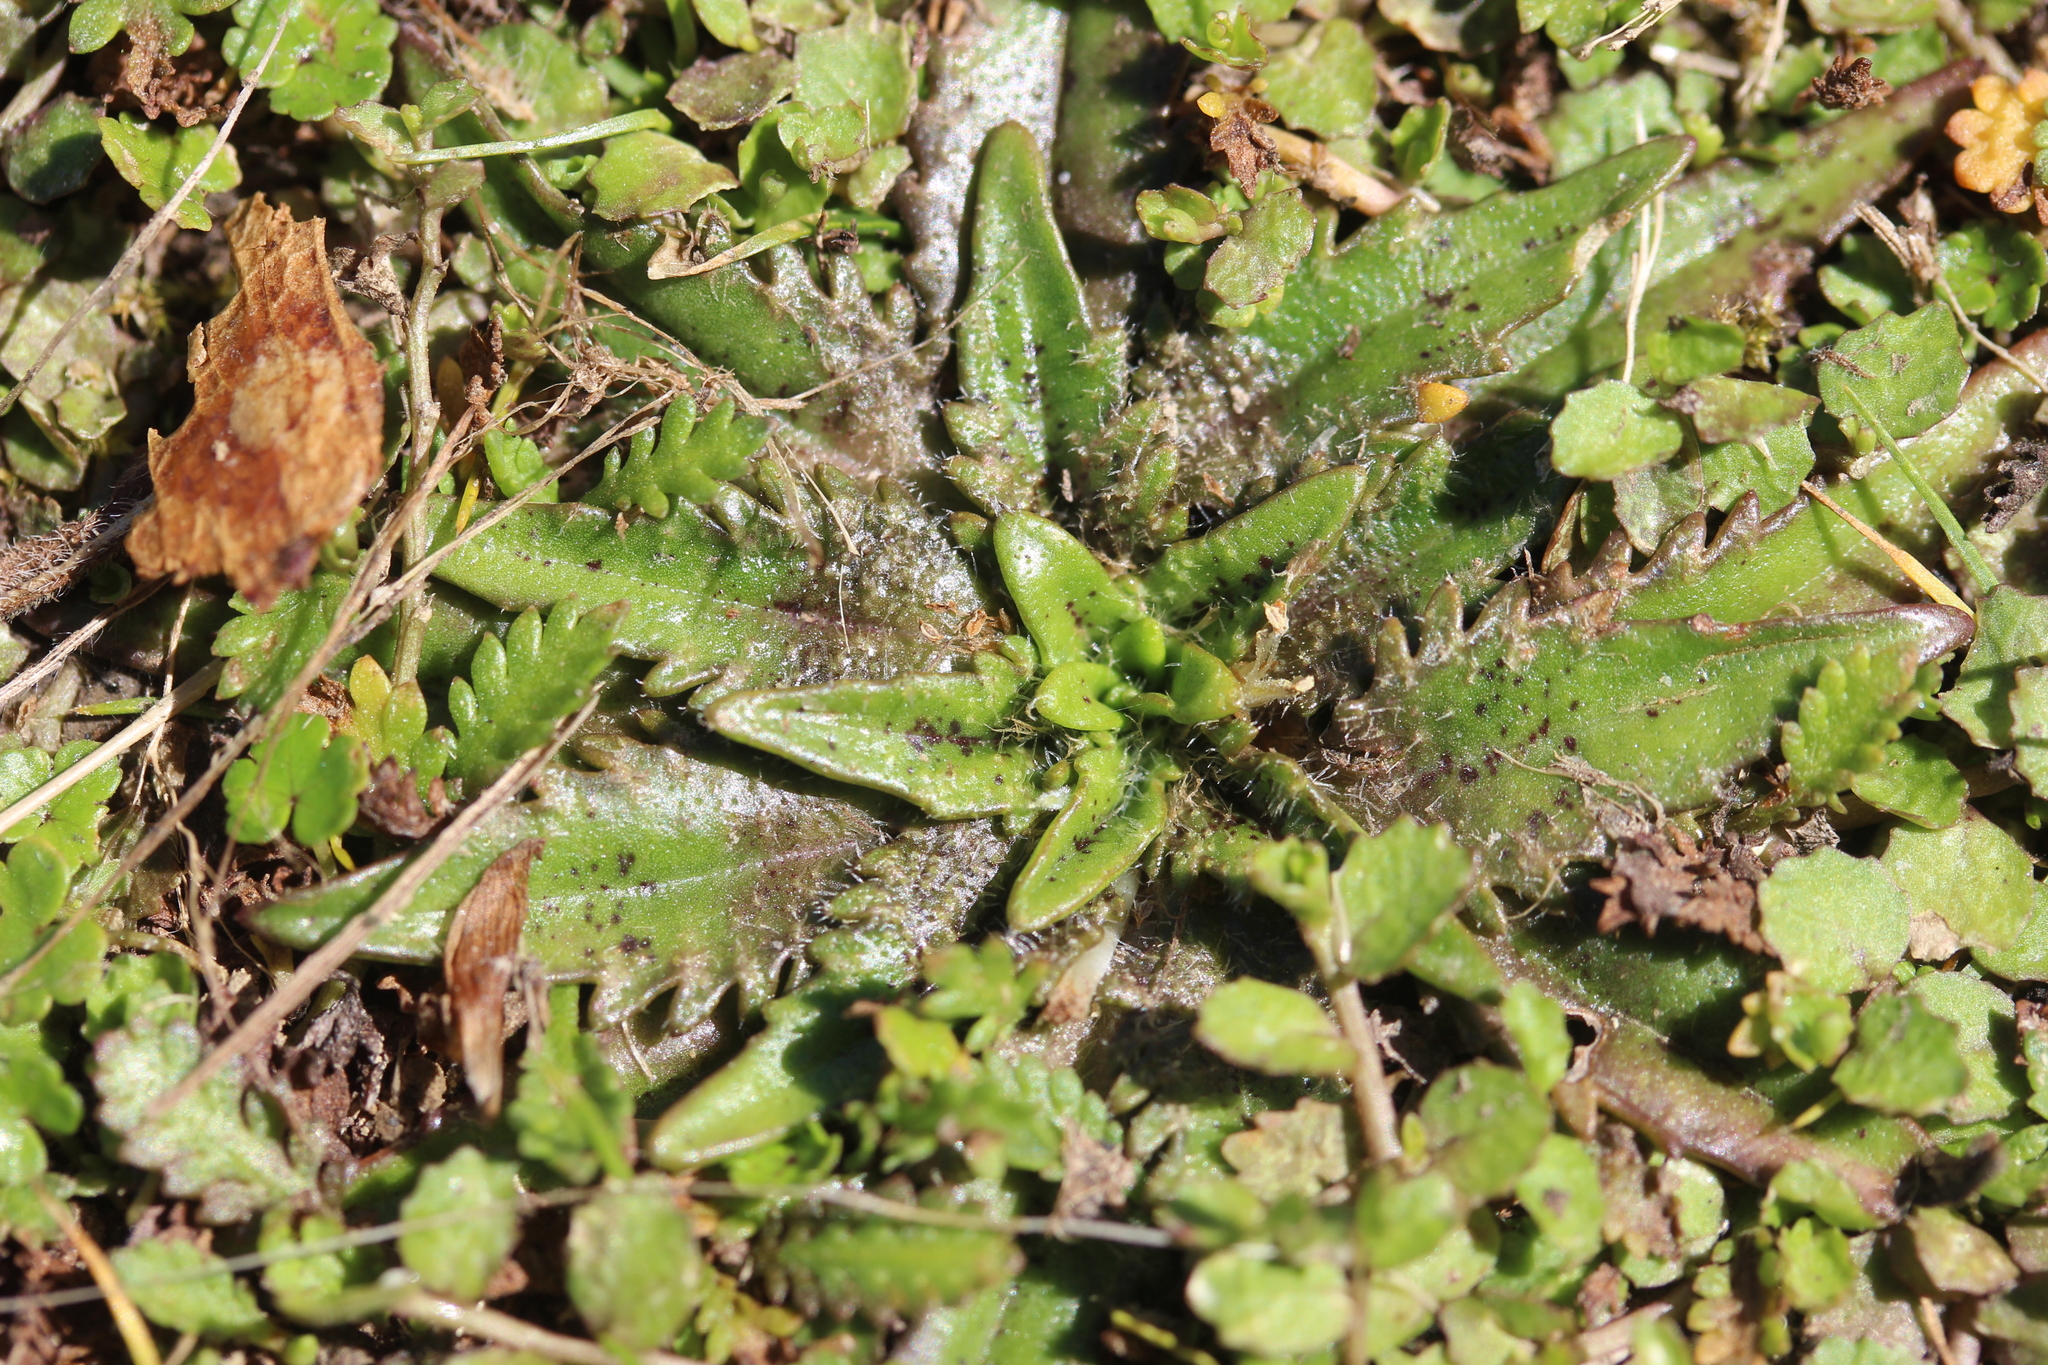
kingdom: Plantae
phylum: Tracheophyta
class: Magnoliopsida
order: Lamiales
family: Plantaginaceae
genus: Plantago
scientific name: Plantago triandra
